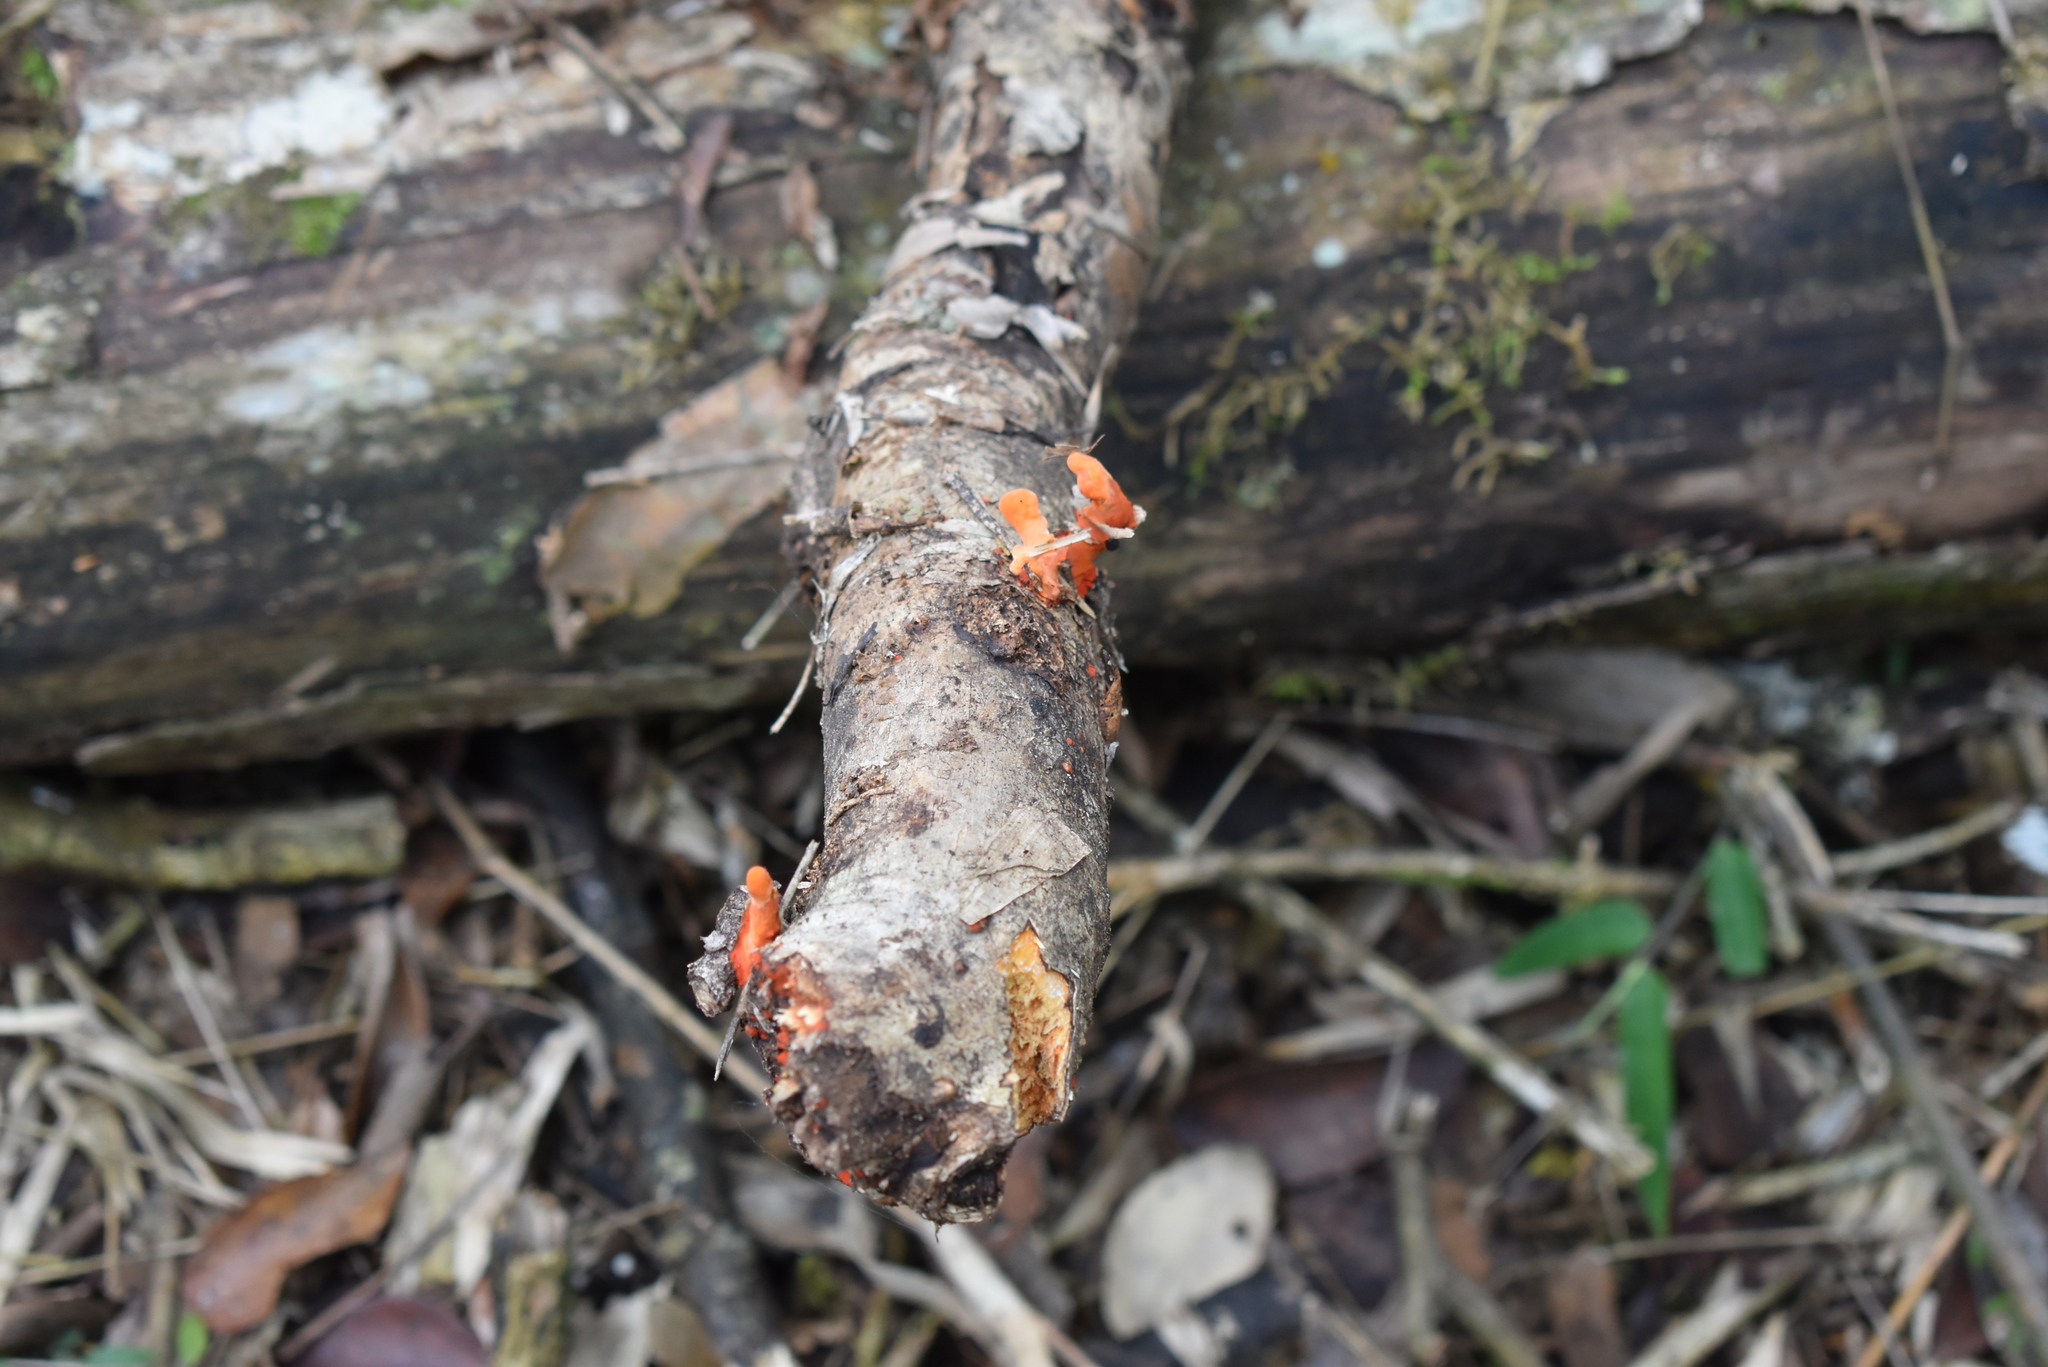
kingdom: Fungi
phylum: Basidiomycota
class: Agaricomycetes
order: Polyporales
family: Polyporaceae
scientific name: Polyporaceae
